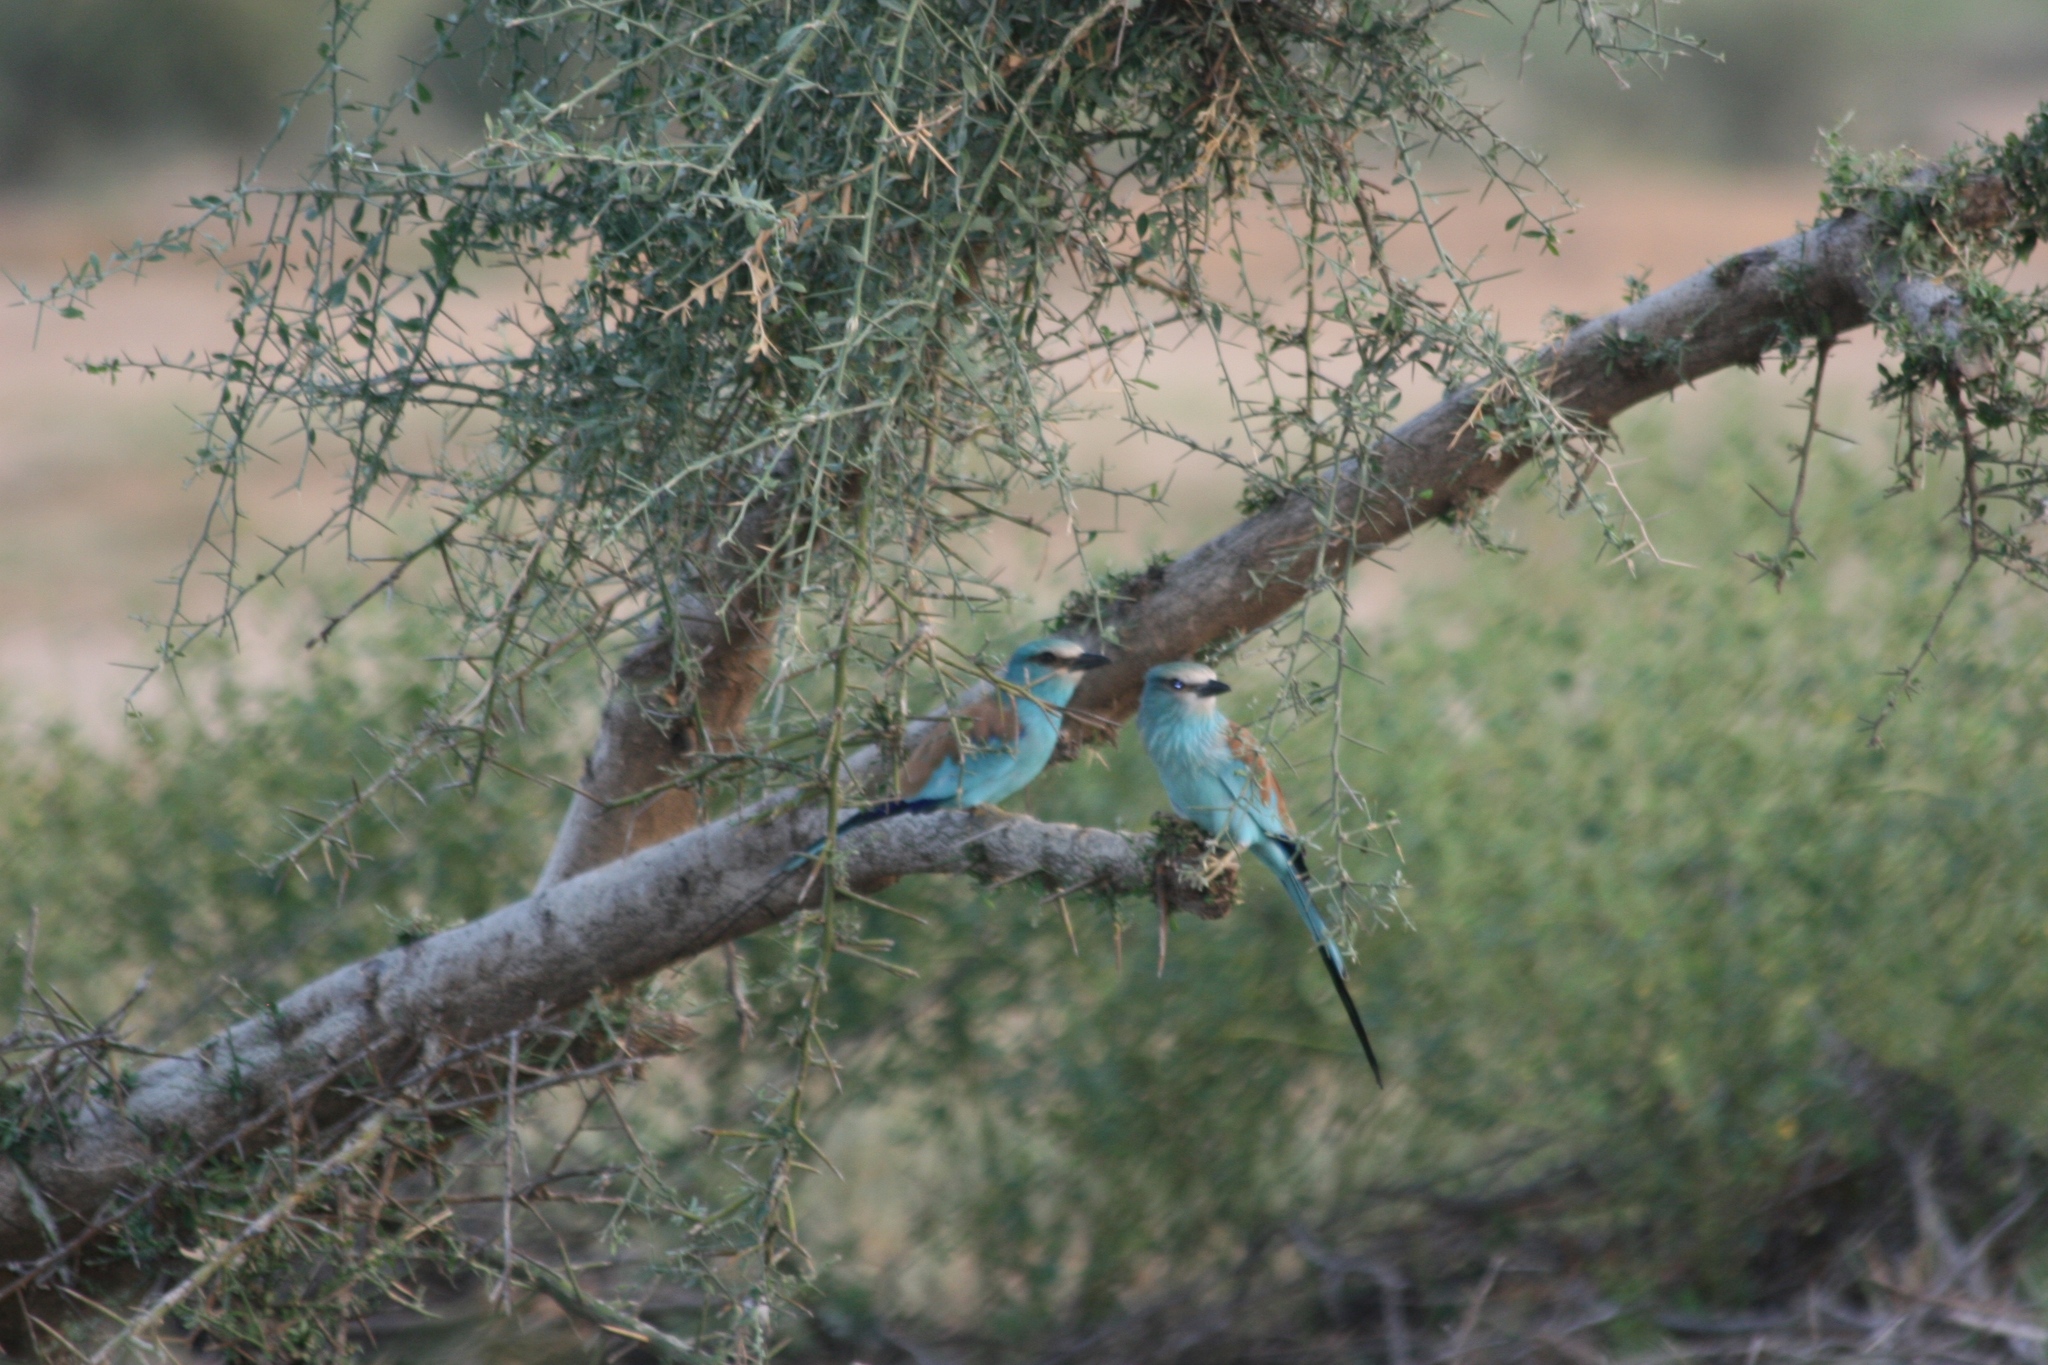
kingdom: Animalia
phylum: Chordata
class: Aves
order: Coraciiformes
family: Coraciidae
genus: Coracias
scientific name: Coracias abyssinicus
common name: Abyssinian roller
